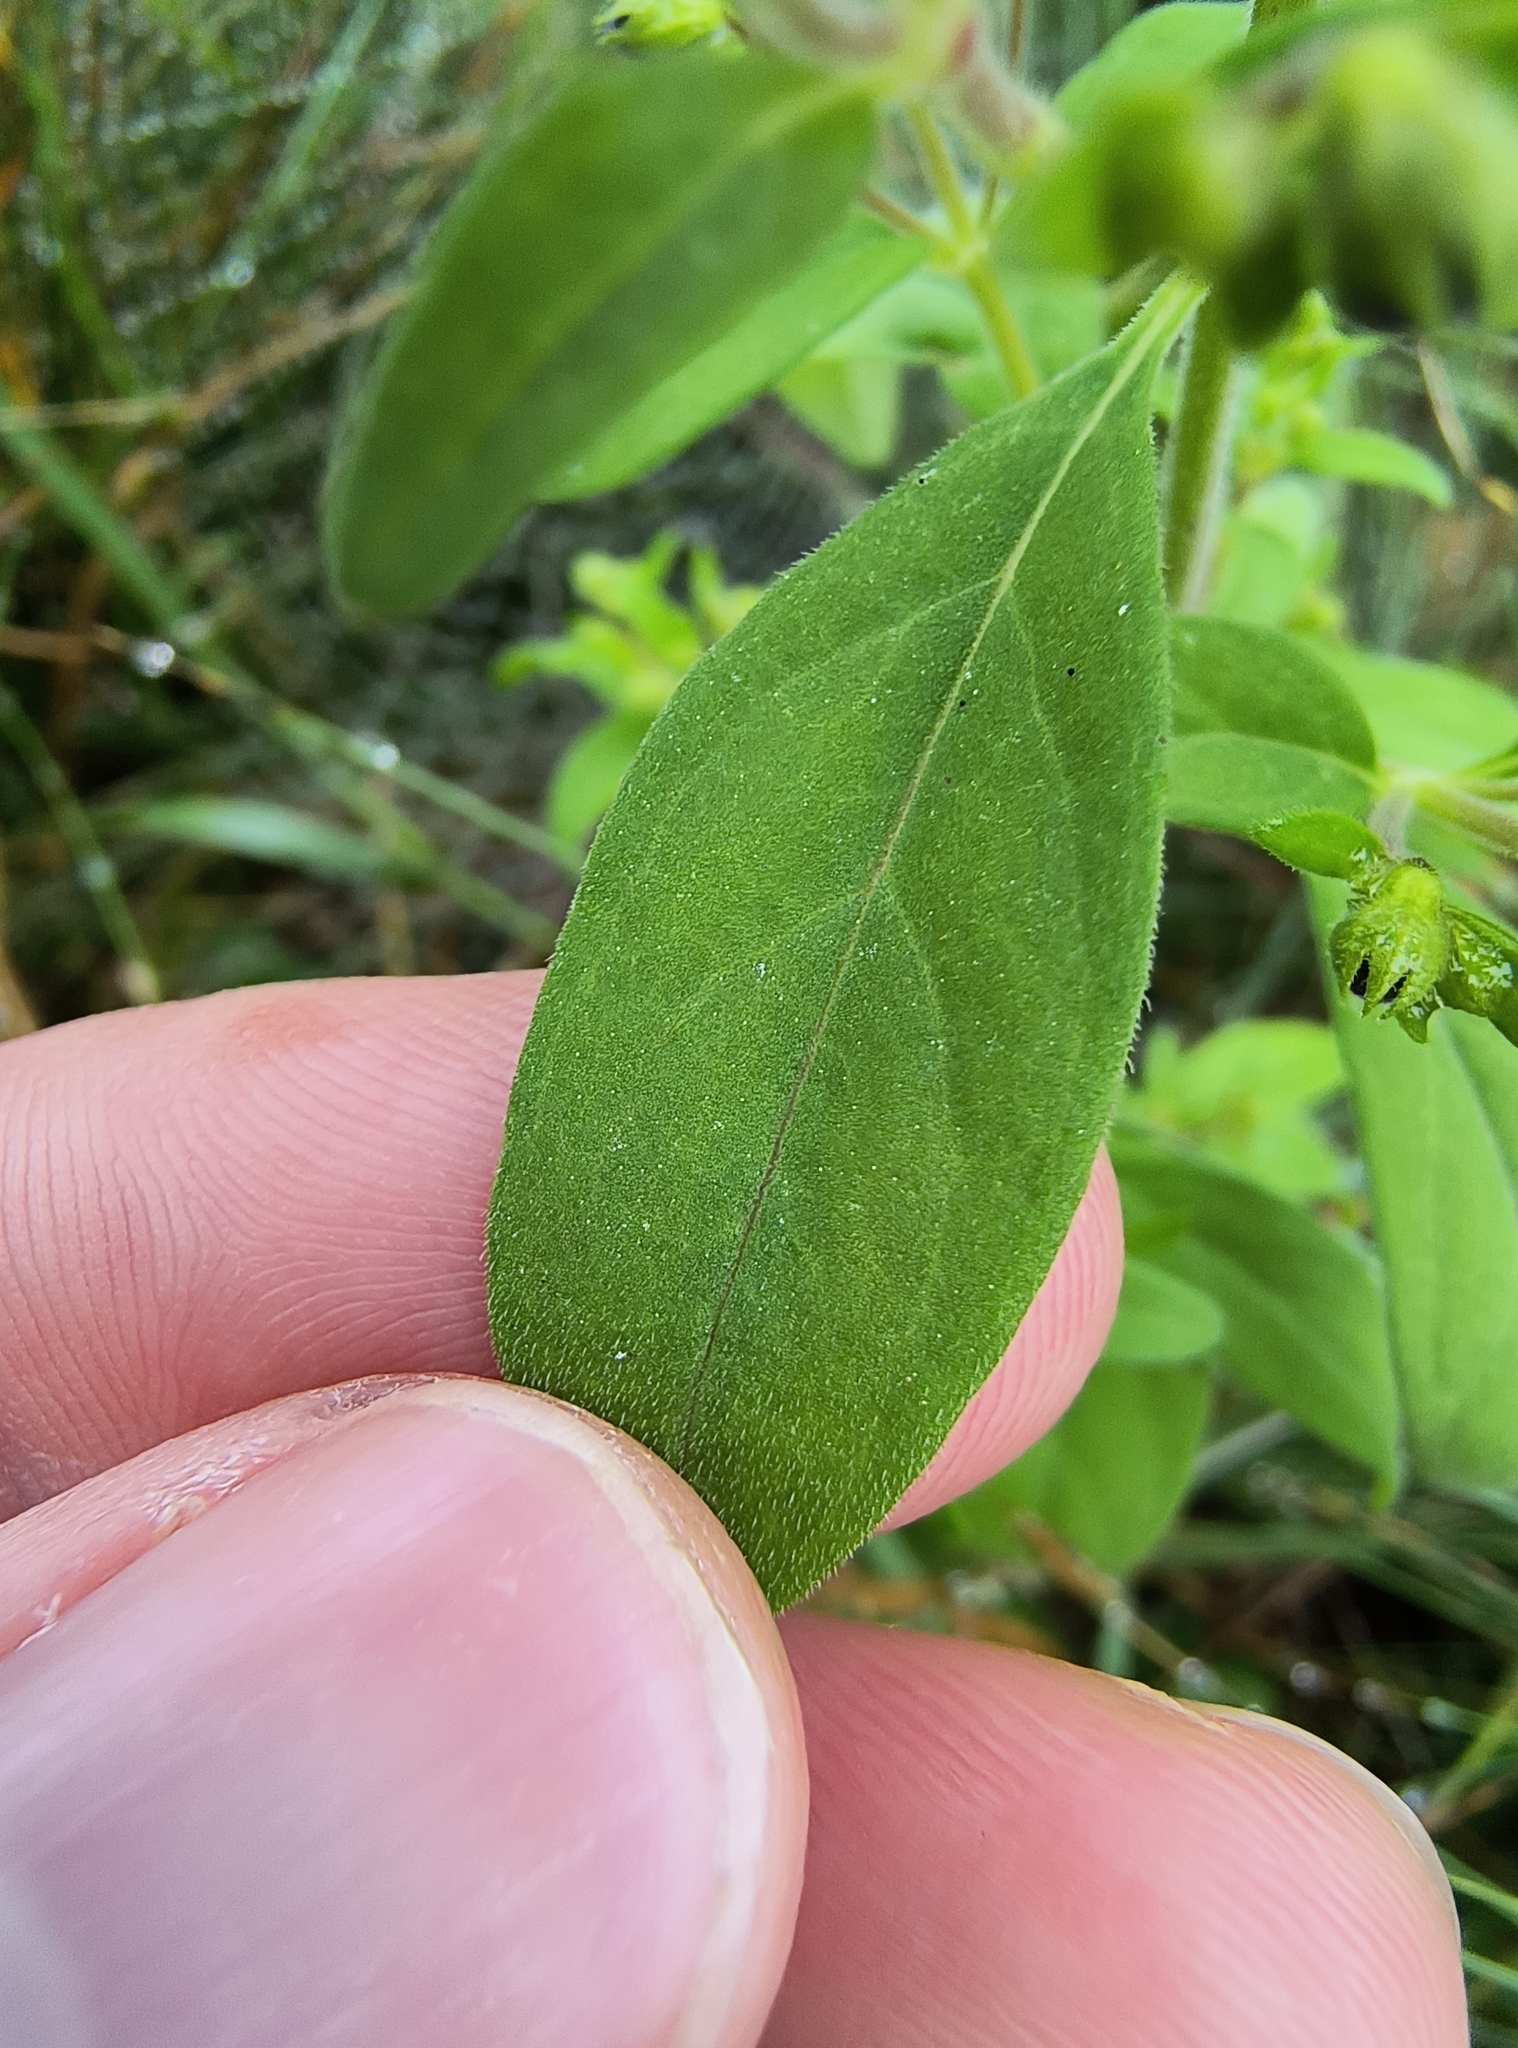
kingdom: Plantae
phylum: Tracheophyta
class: Magnoliopsida
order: Lamiales
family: Lamiaceae
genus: Trichostema
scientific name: Trichostema dichotomum
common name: Bastard pennyroyal
